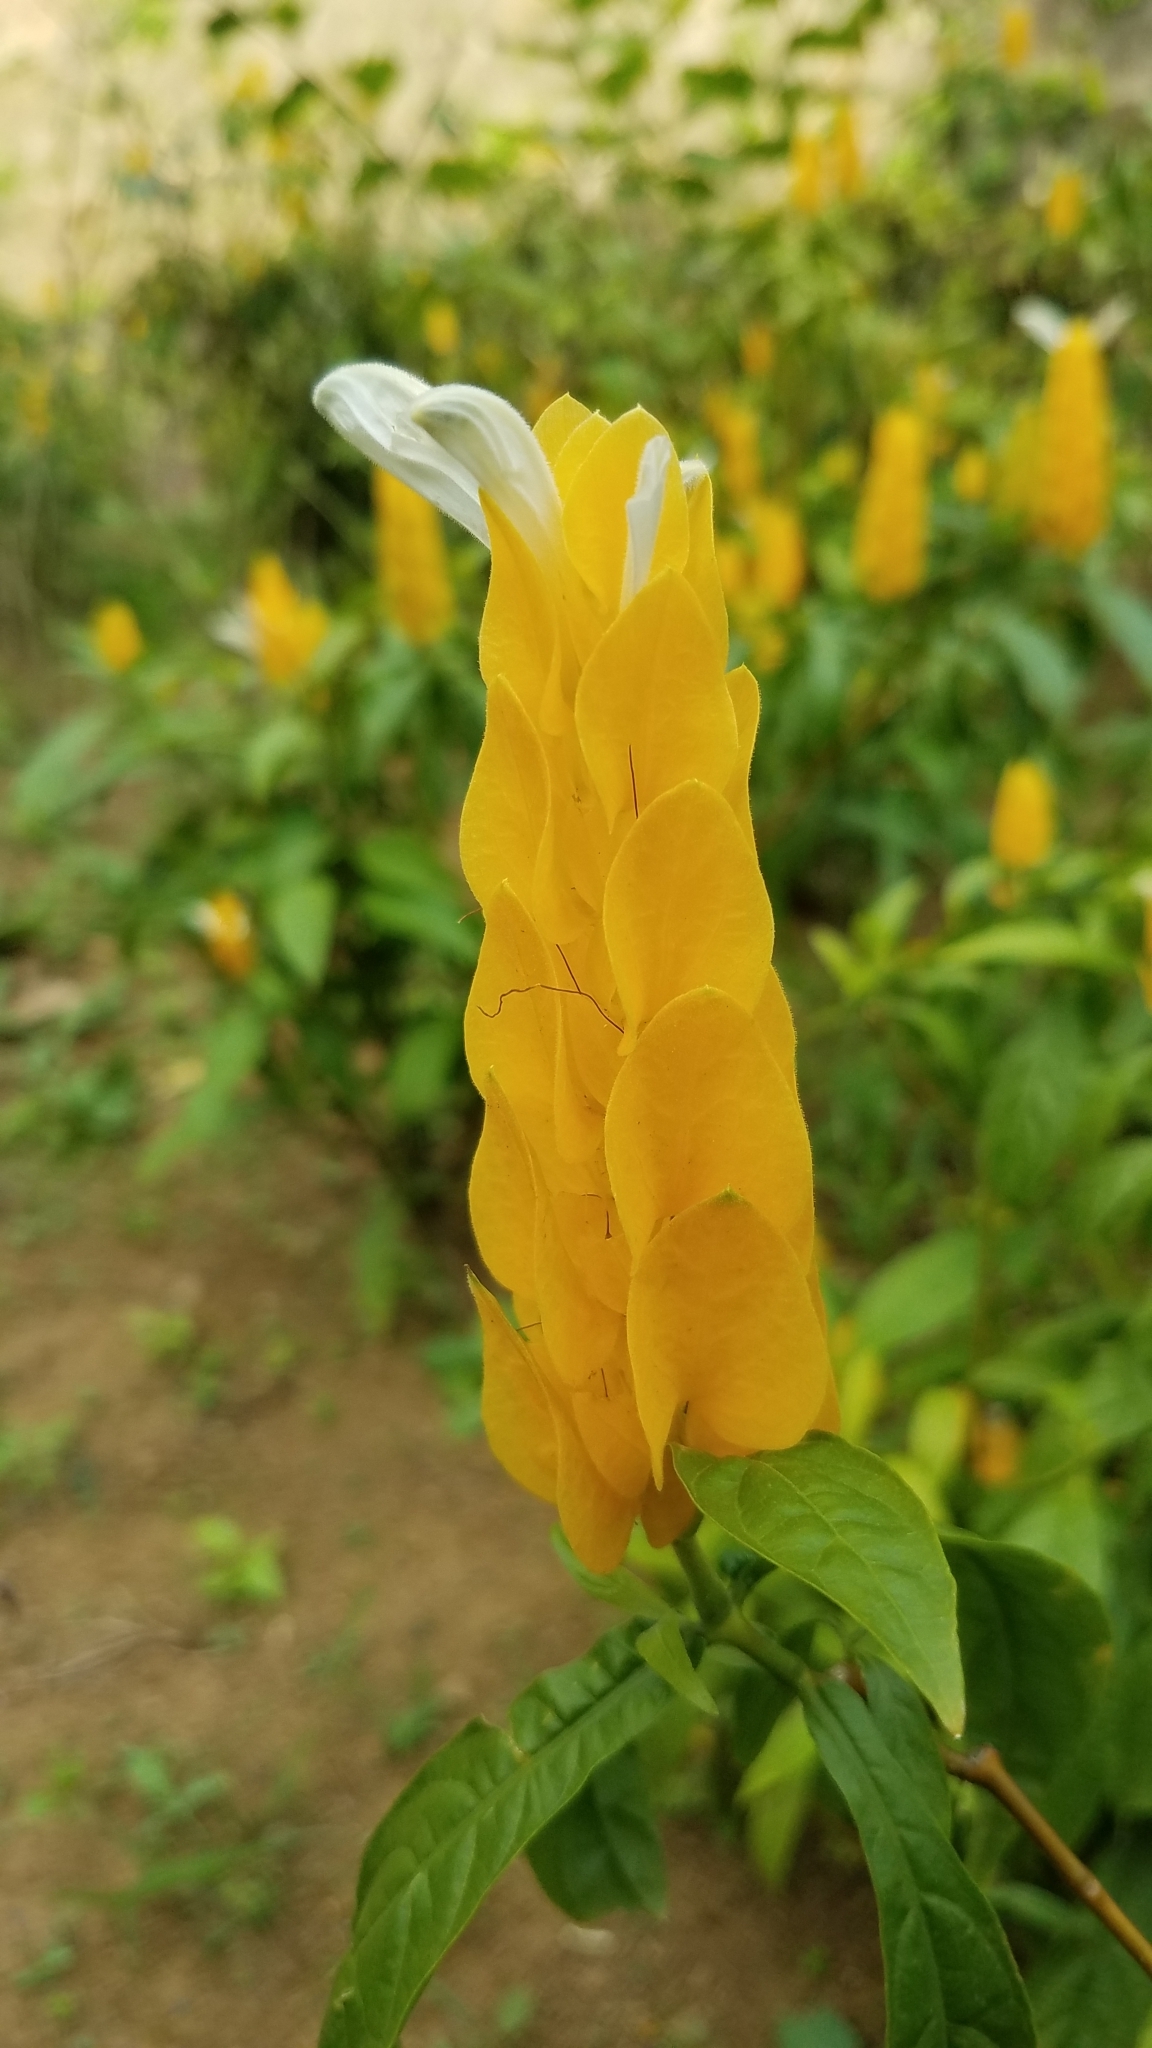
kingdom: Plantae
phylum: Tracheophyta
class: Magnoliopsida
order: Lamiales
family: Acanthaceae
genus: Pachystachys
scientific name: Pachystachys lutea
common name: Golden shrimp-plant
